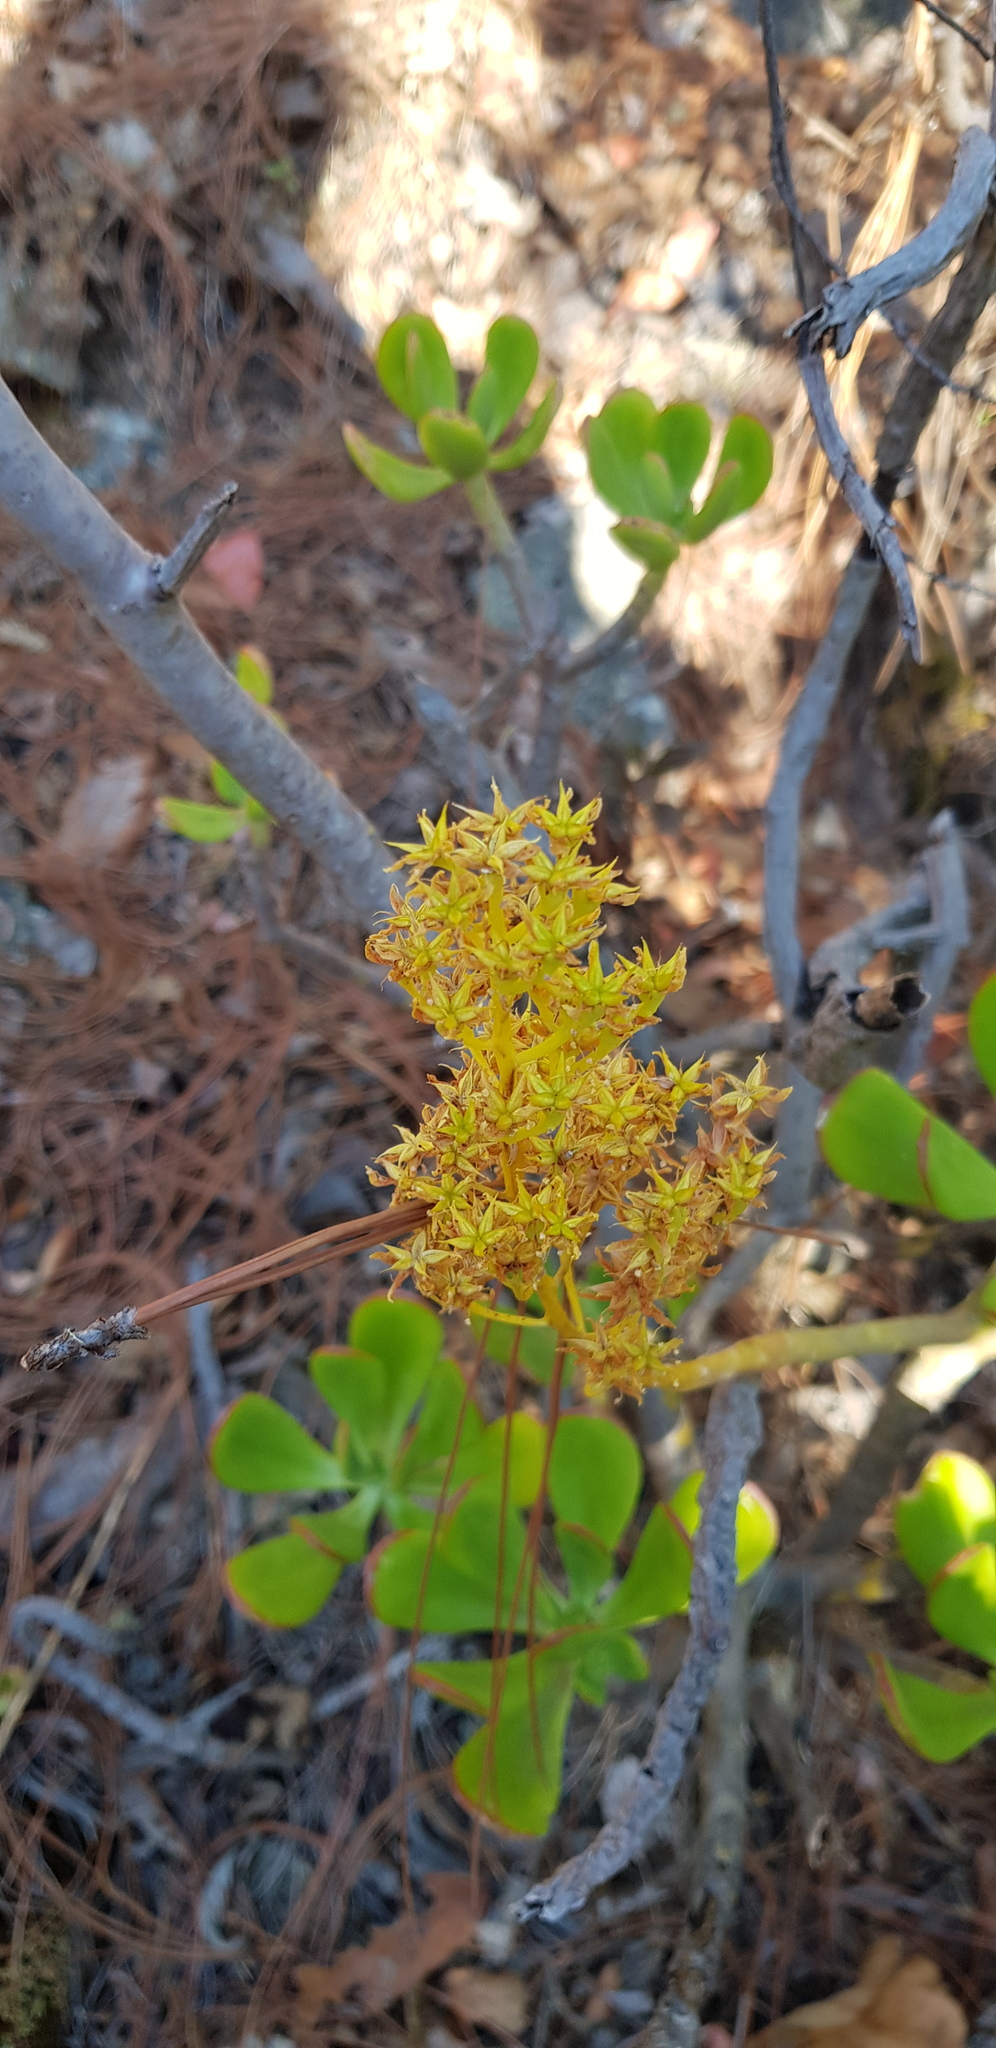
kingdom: Plantae
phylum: Tracheophyta
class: Magnoliopsida
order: Saxifragales
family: Crassulaceae
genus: Sedum
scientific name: Sedum dendroideum
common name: Tree stonecrop
